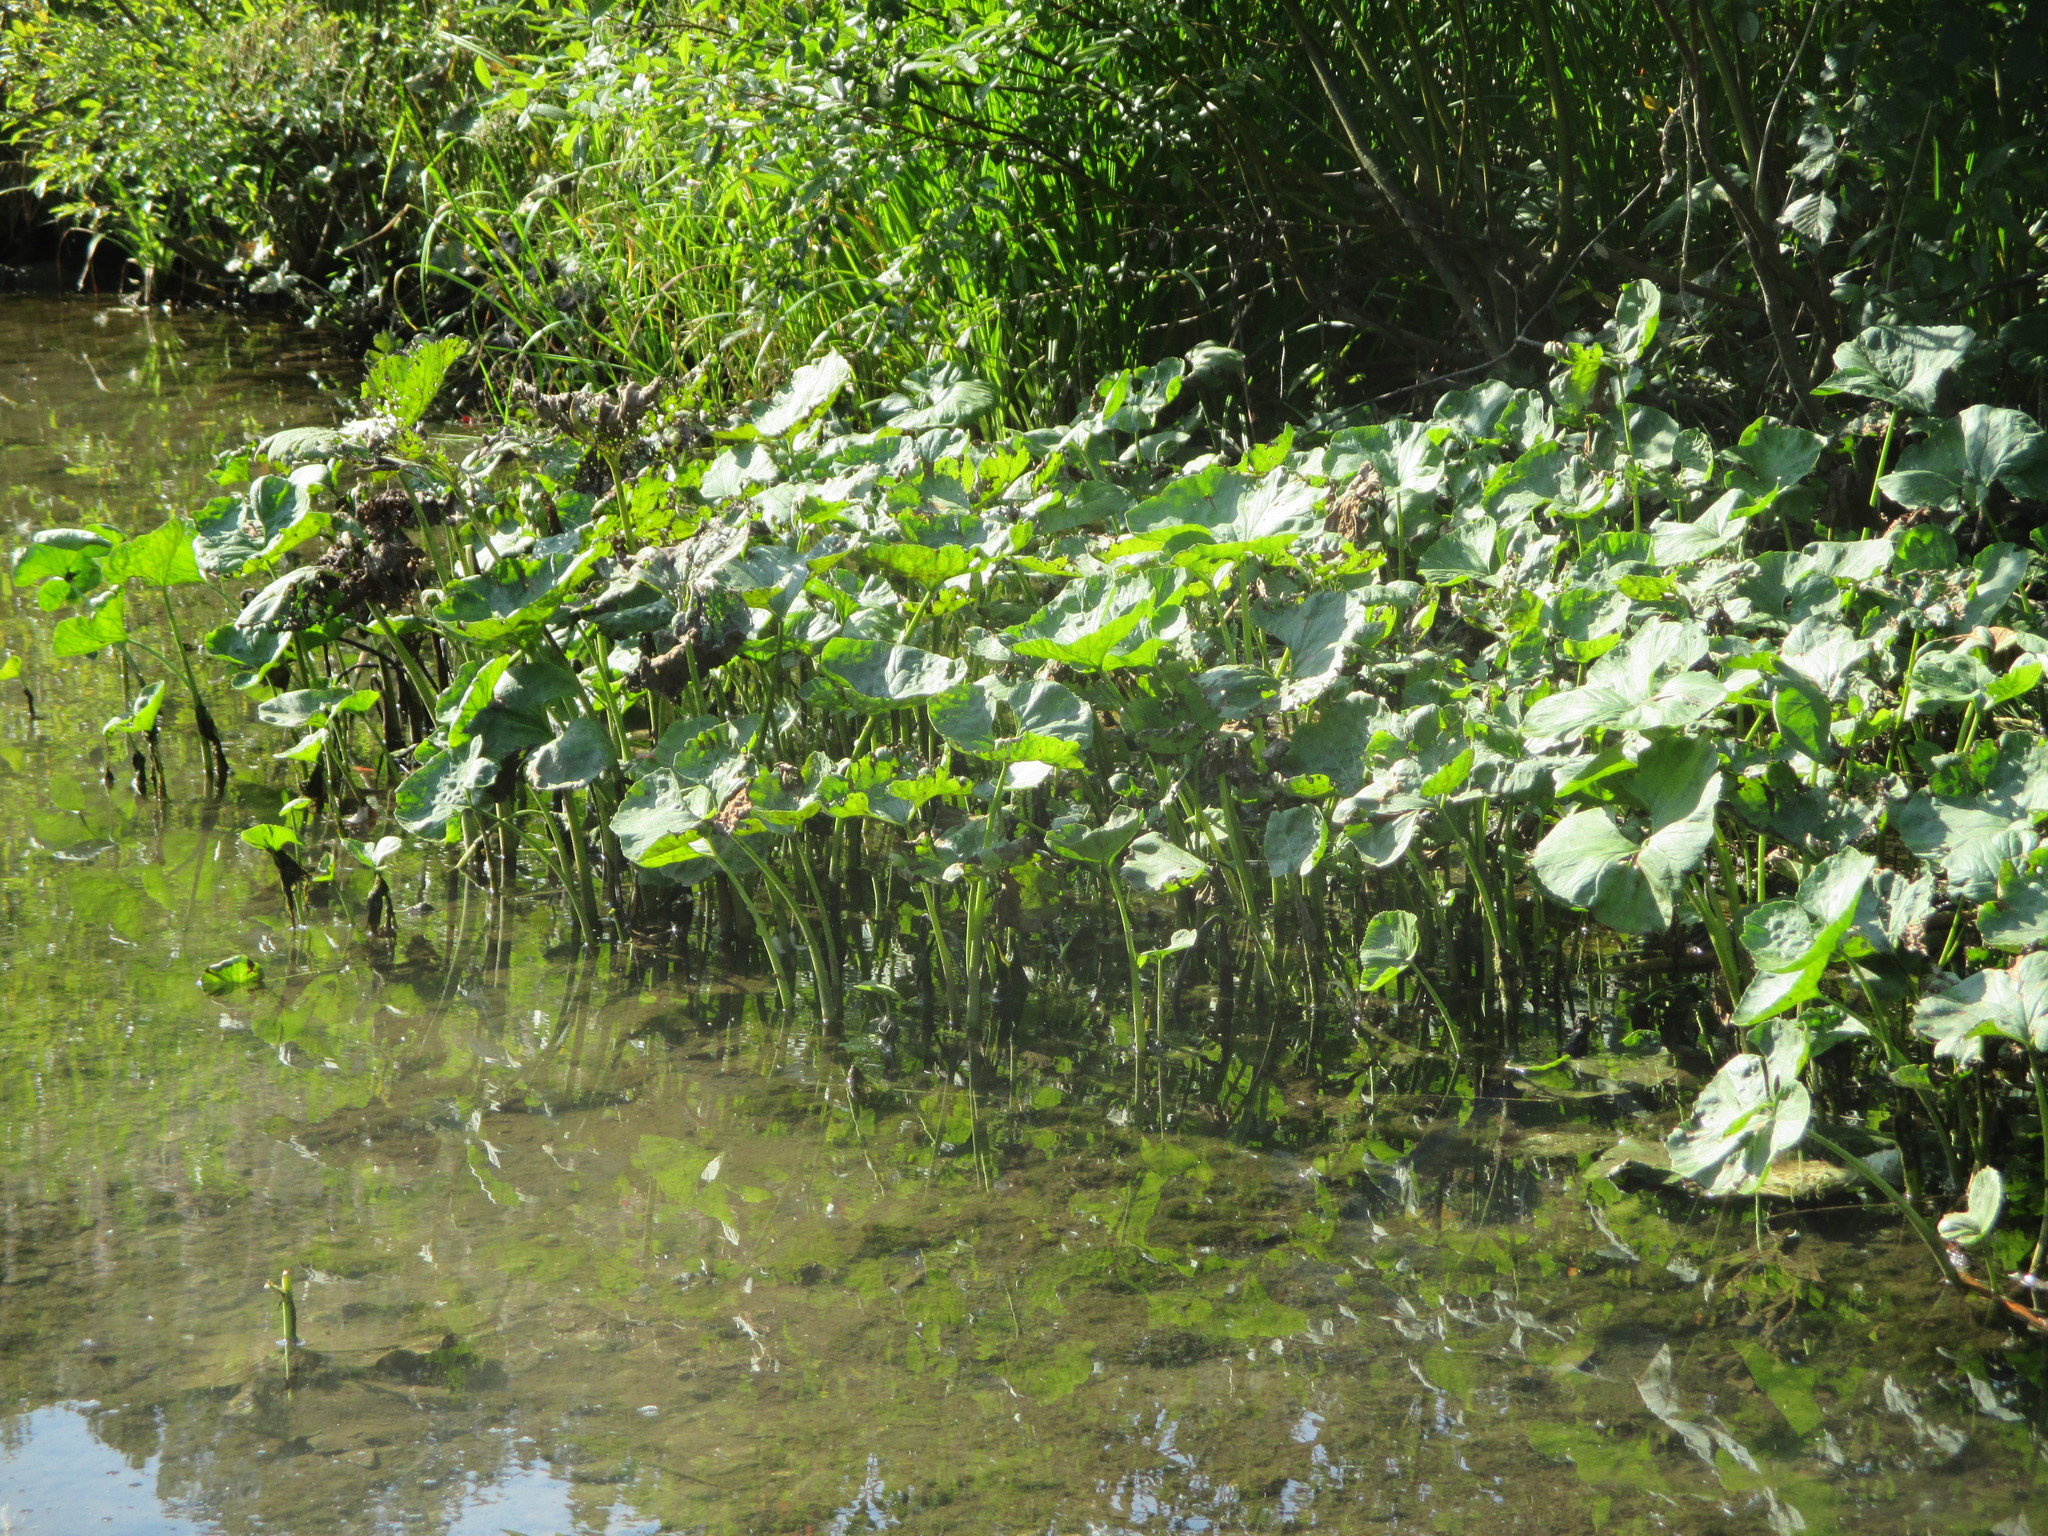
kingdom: Plantae
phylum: Tracheophyta
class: Magnoliopsida
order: Asterales
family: Asteraceae
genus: Petasites
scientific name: Petasites radiatus
